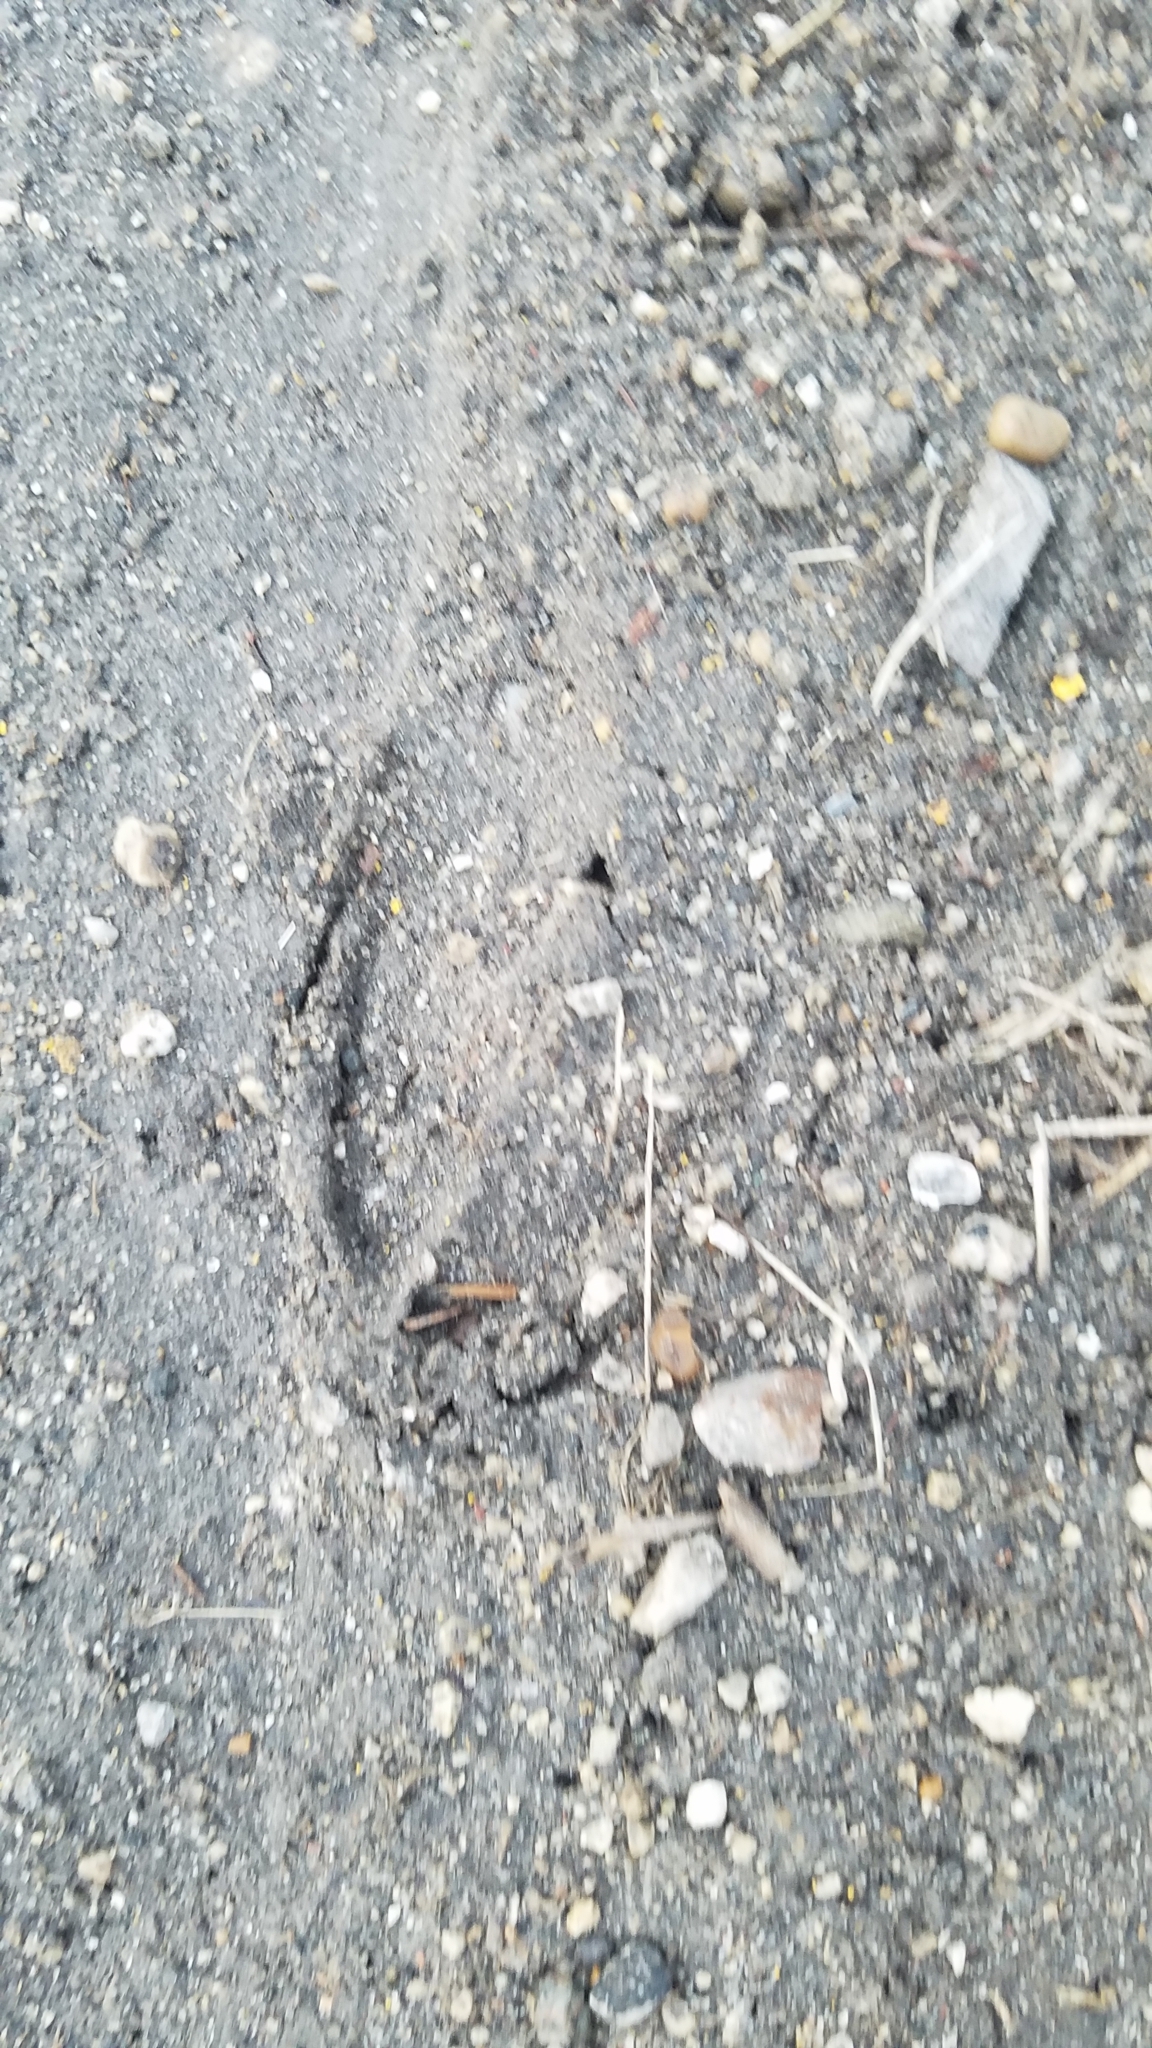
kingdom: Animalia
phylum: Chordata
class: Mammalia
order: Artiodactyla
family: Cervidae
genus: Odocoileus
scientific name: Odocoileus virginianus
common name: White-tailed deer
